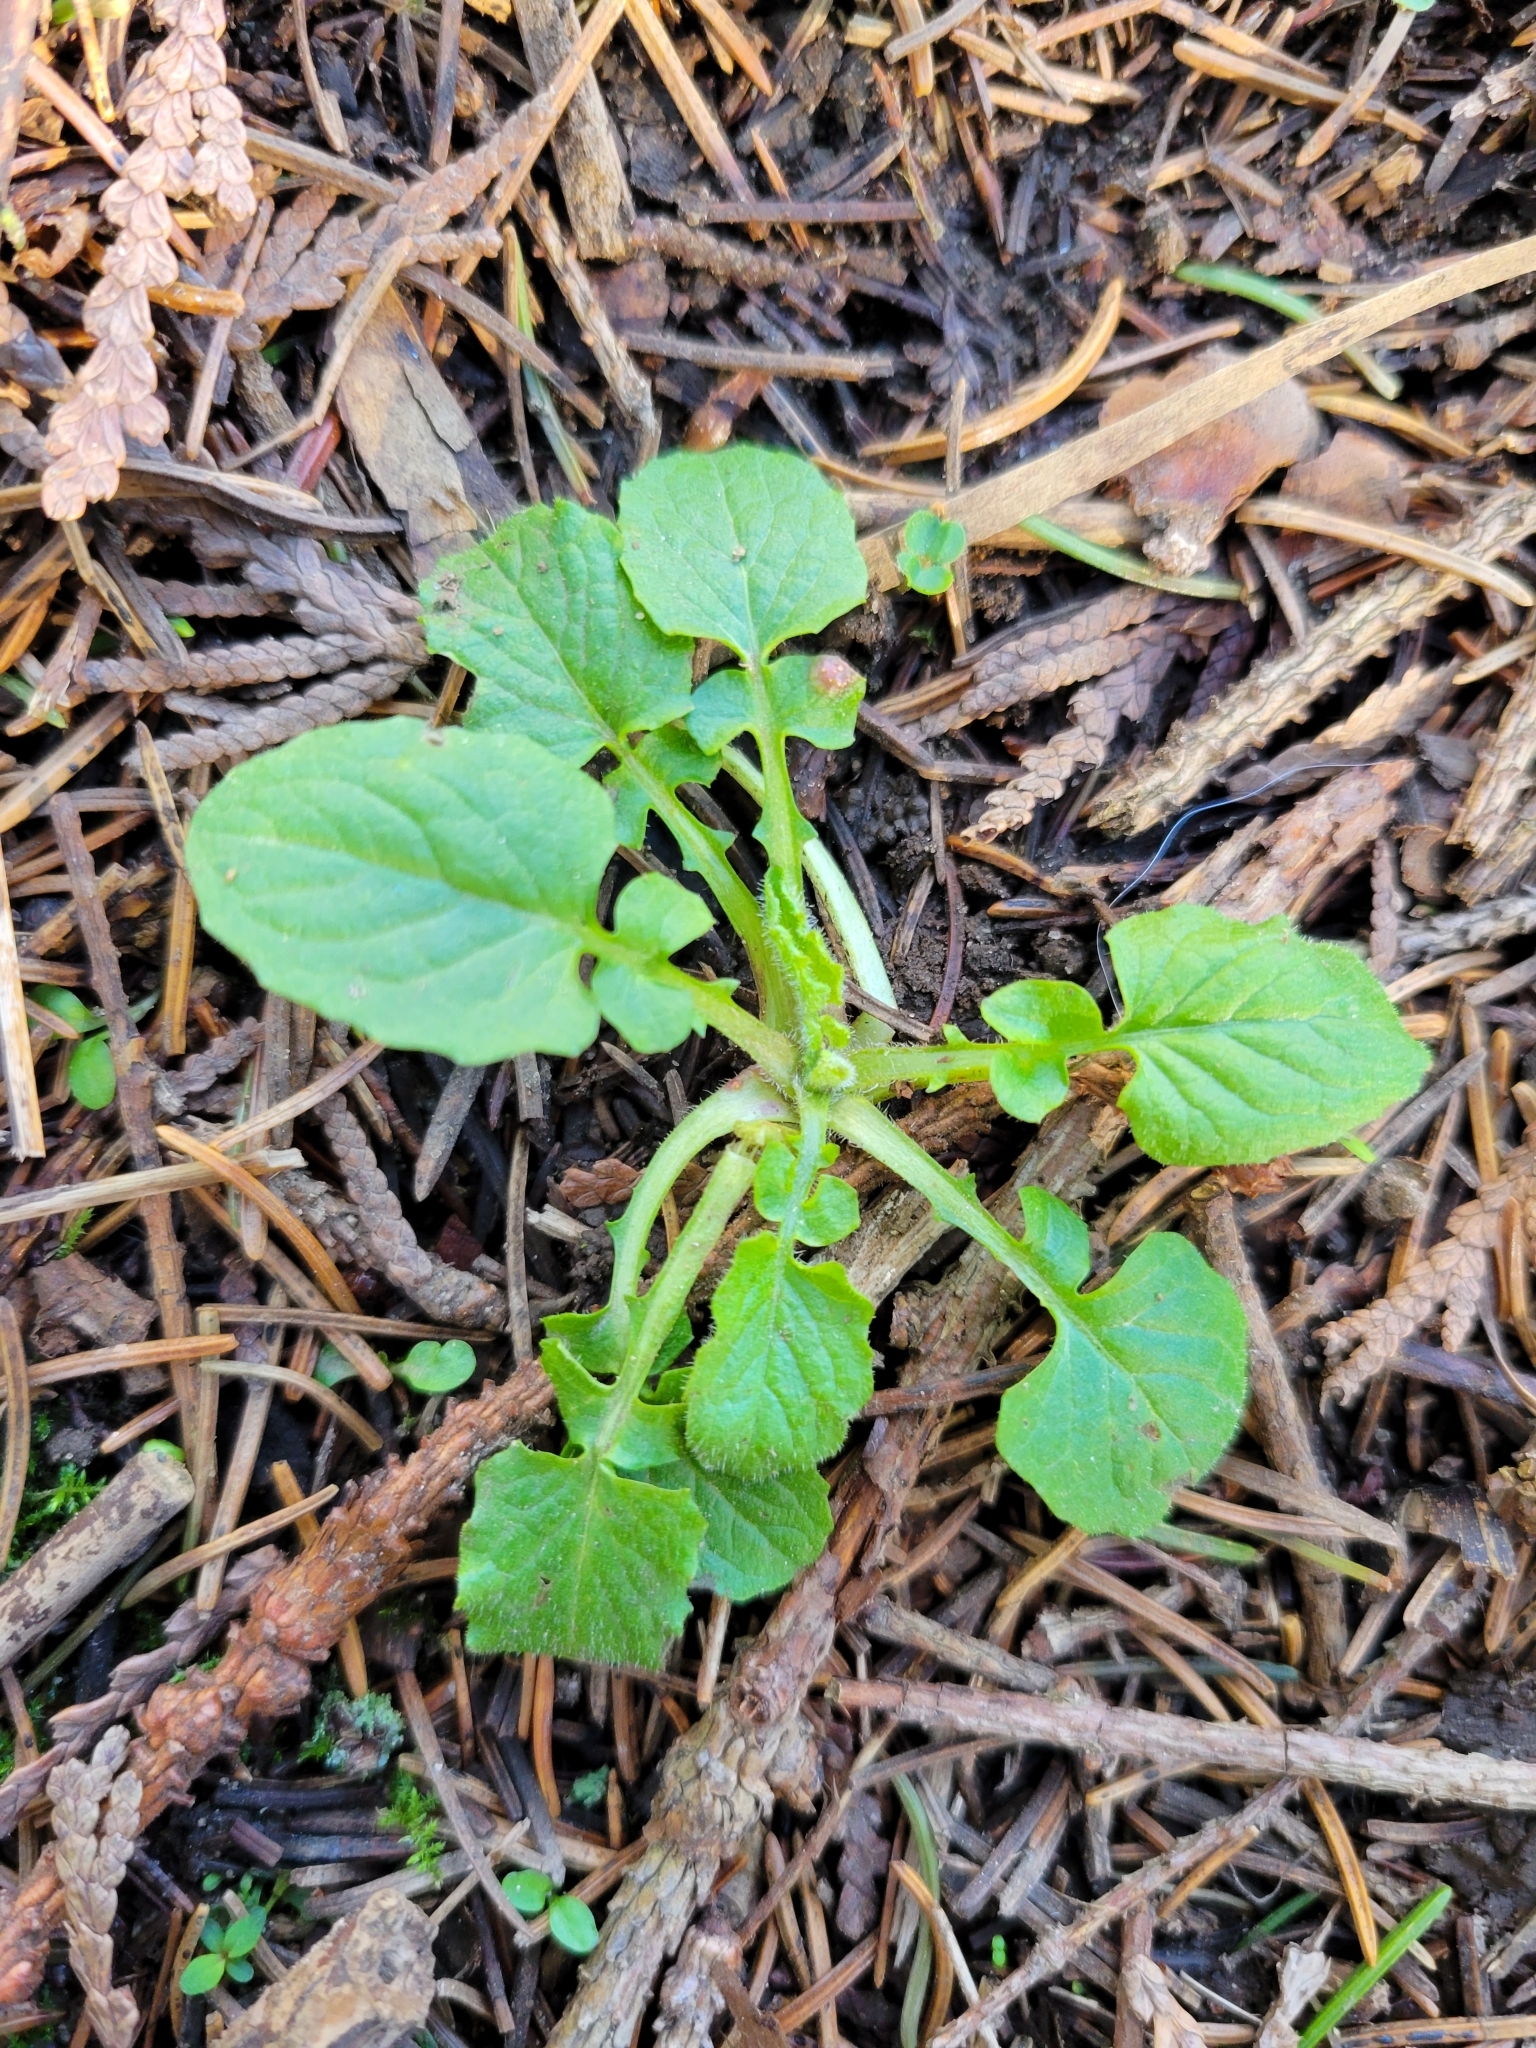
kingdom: Plantae
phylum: Tracheophyta
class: Magnoliopsida
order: Asterales
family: Asteraceae
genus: Lapsana
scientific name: Lapsana communis
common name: Nipplewort
